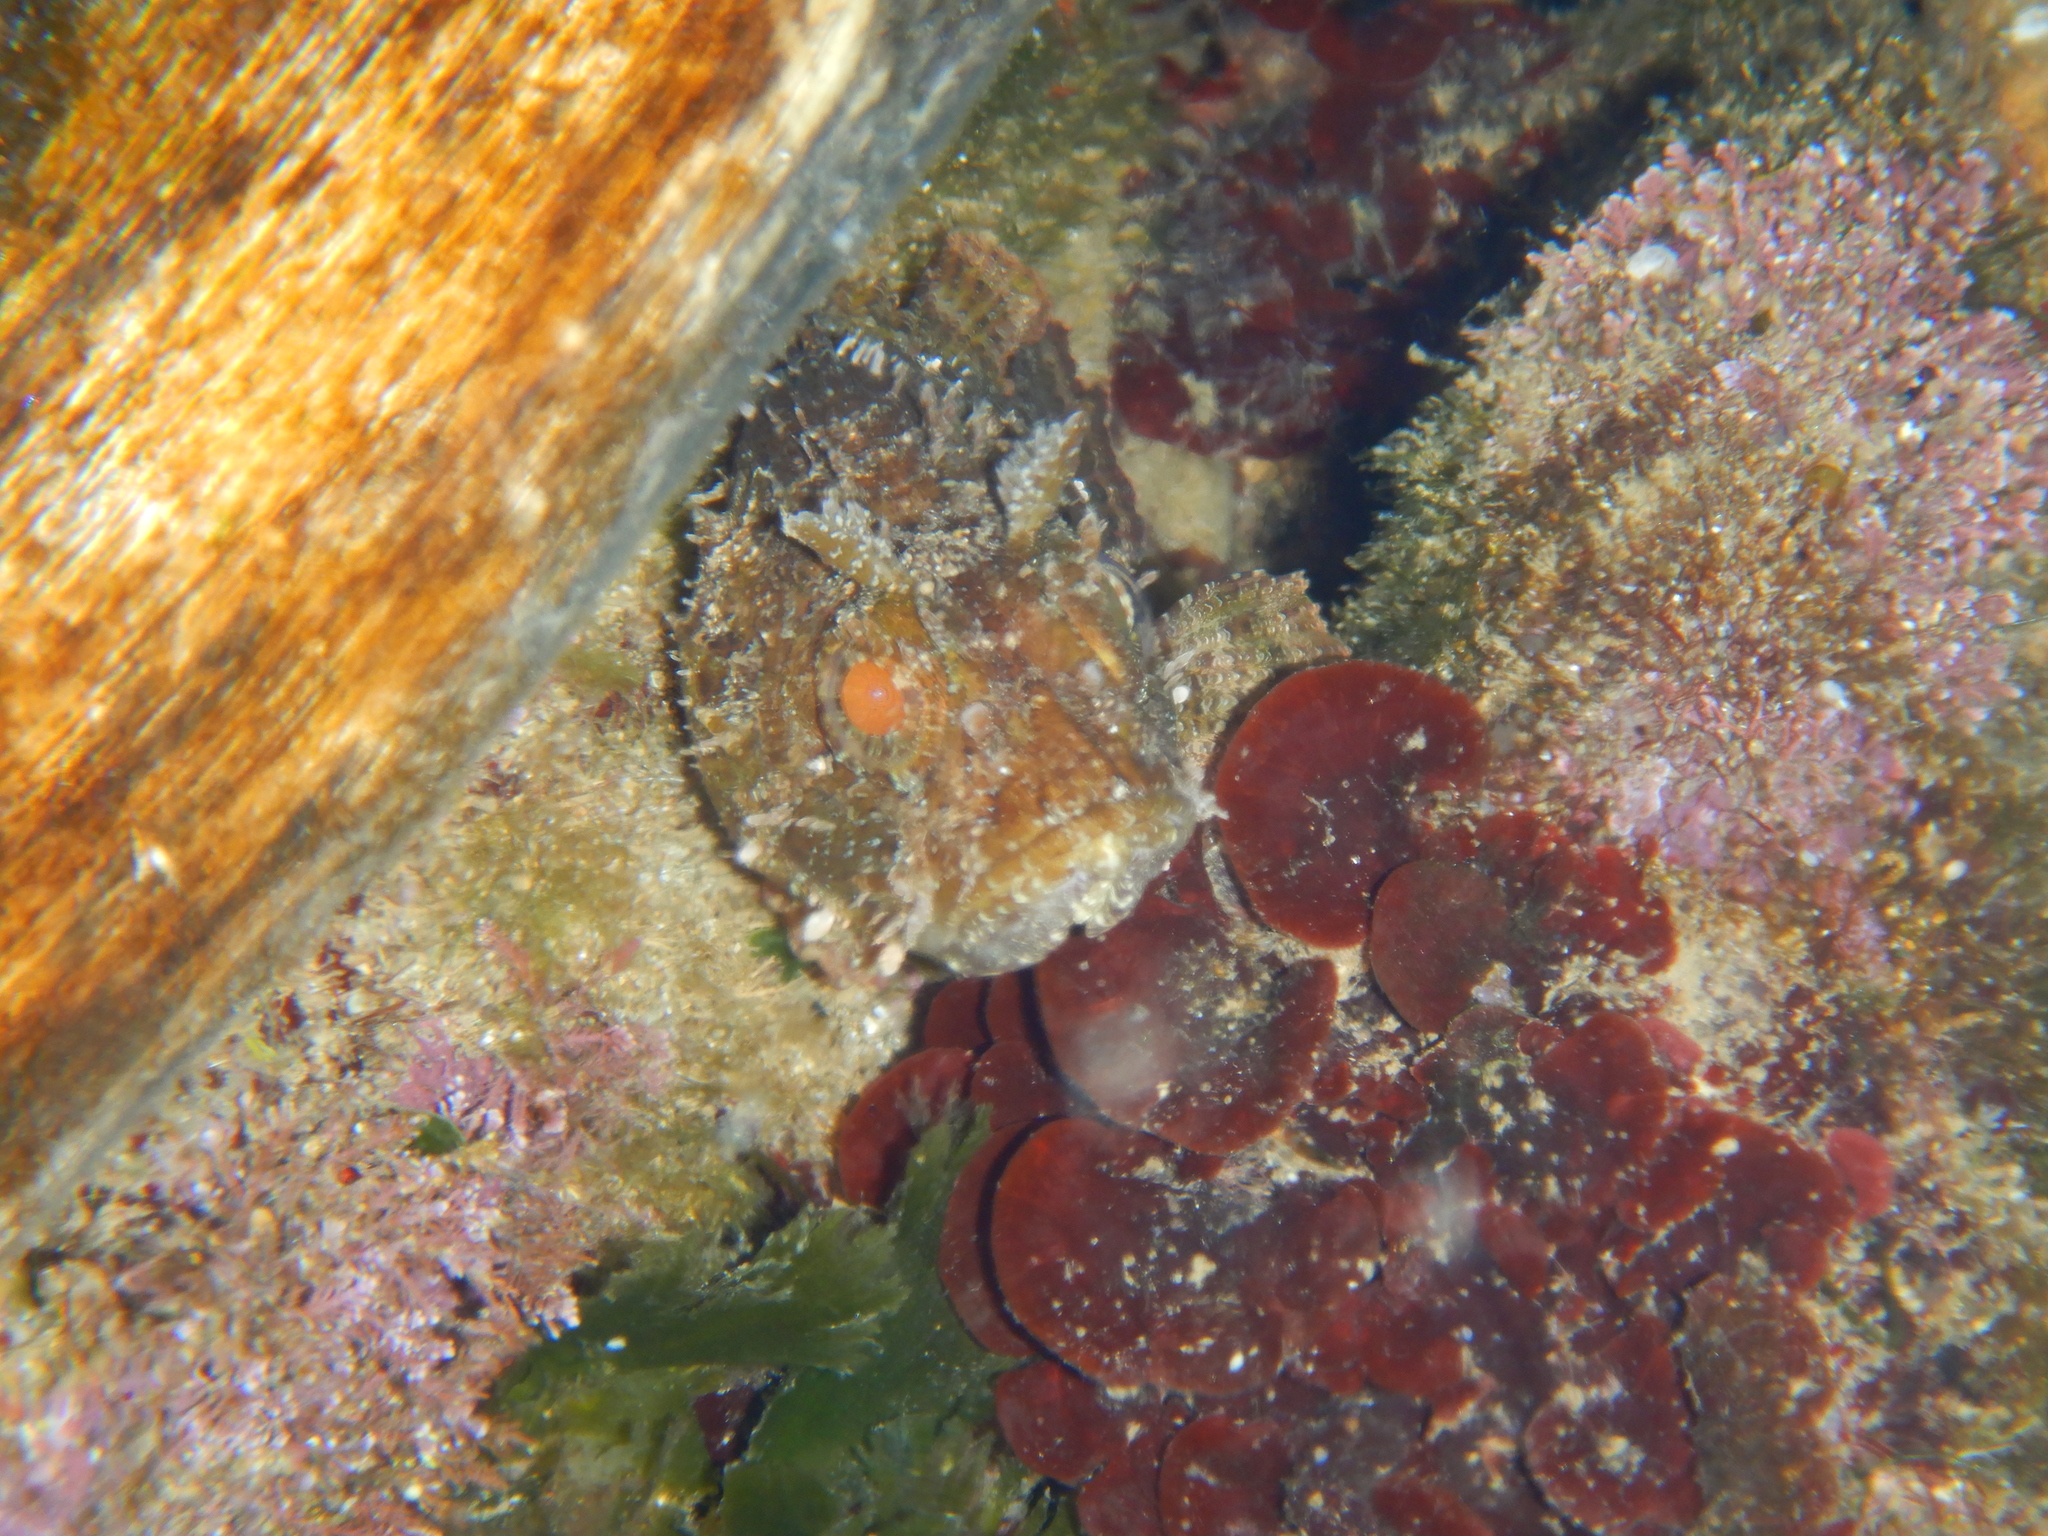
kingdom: Animalia
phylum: Chordata
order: Scorpaeniformes
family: Scorpaenidae
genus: Scorpaena
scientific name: Scorpaena porcus
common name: Black scorpionfish
